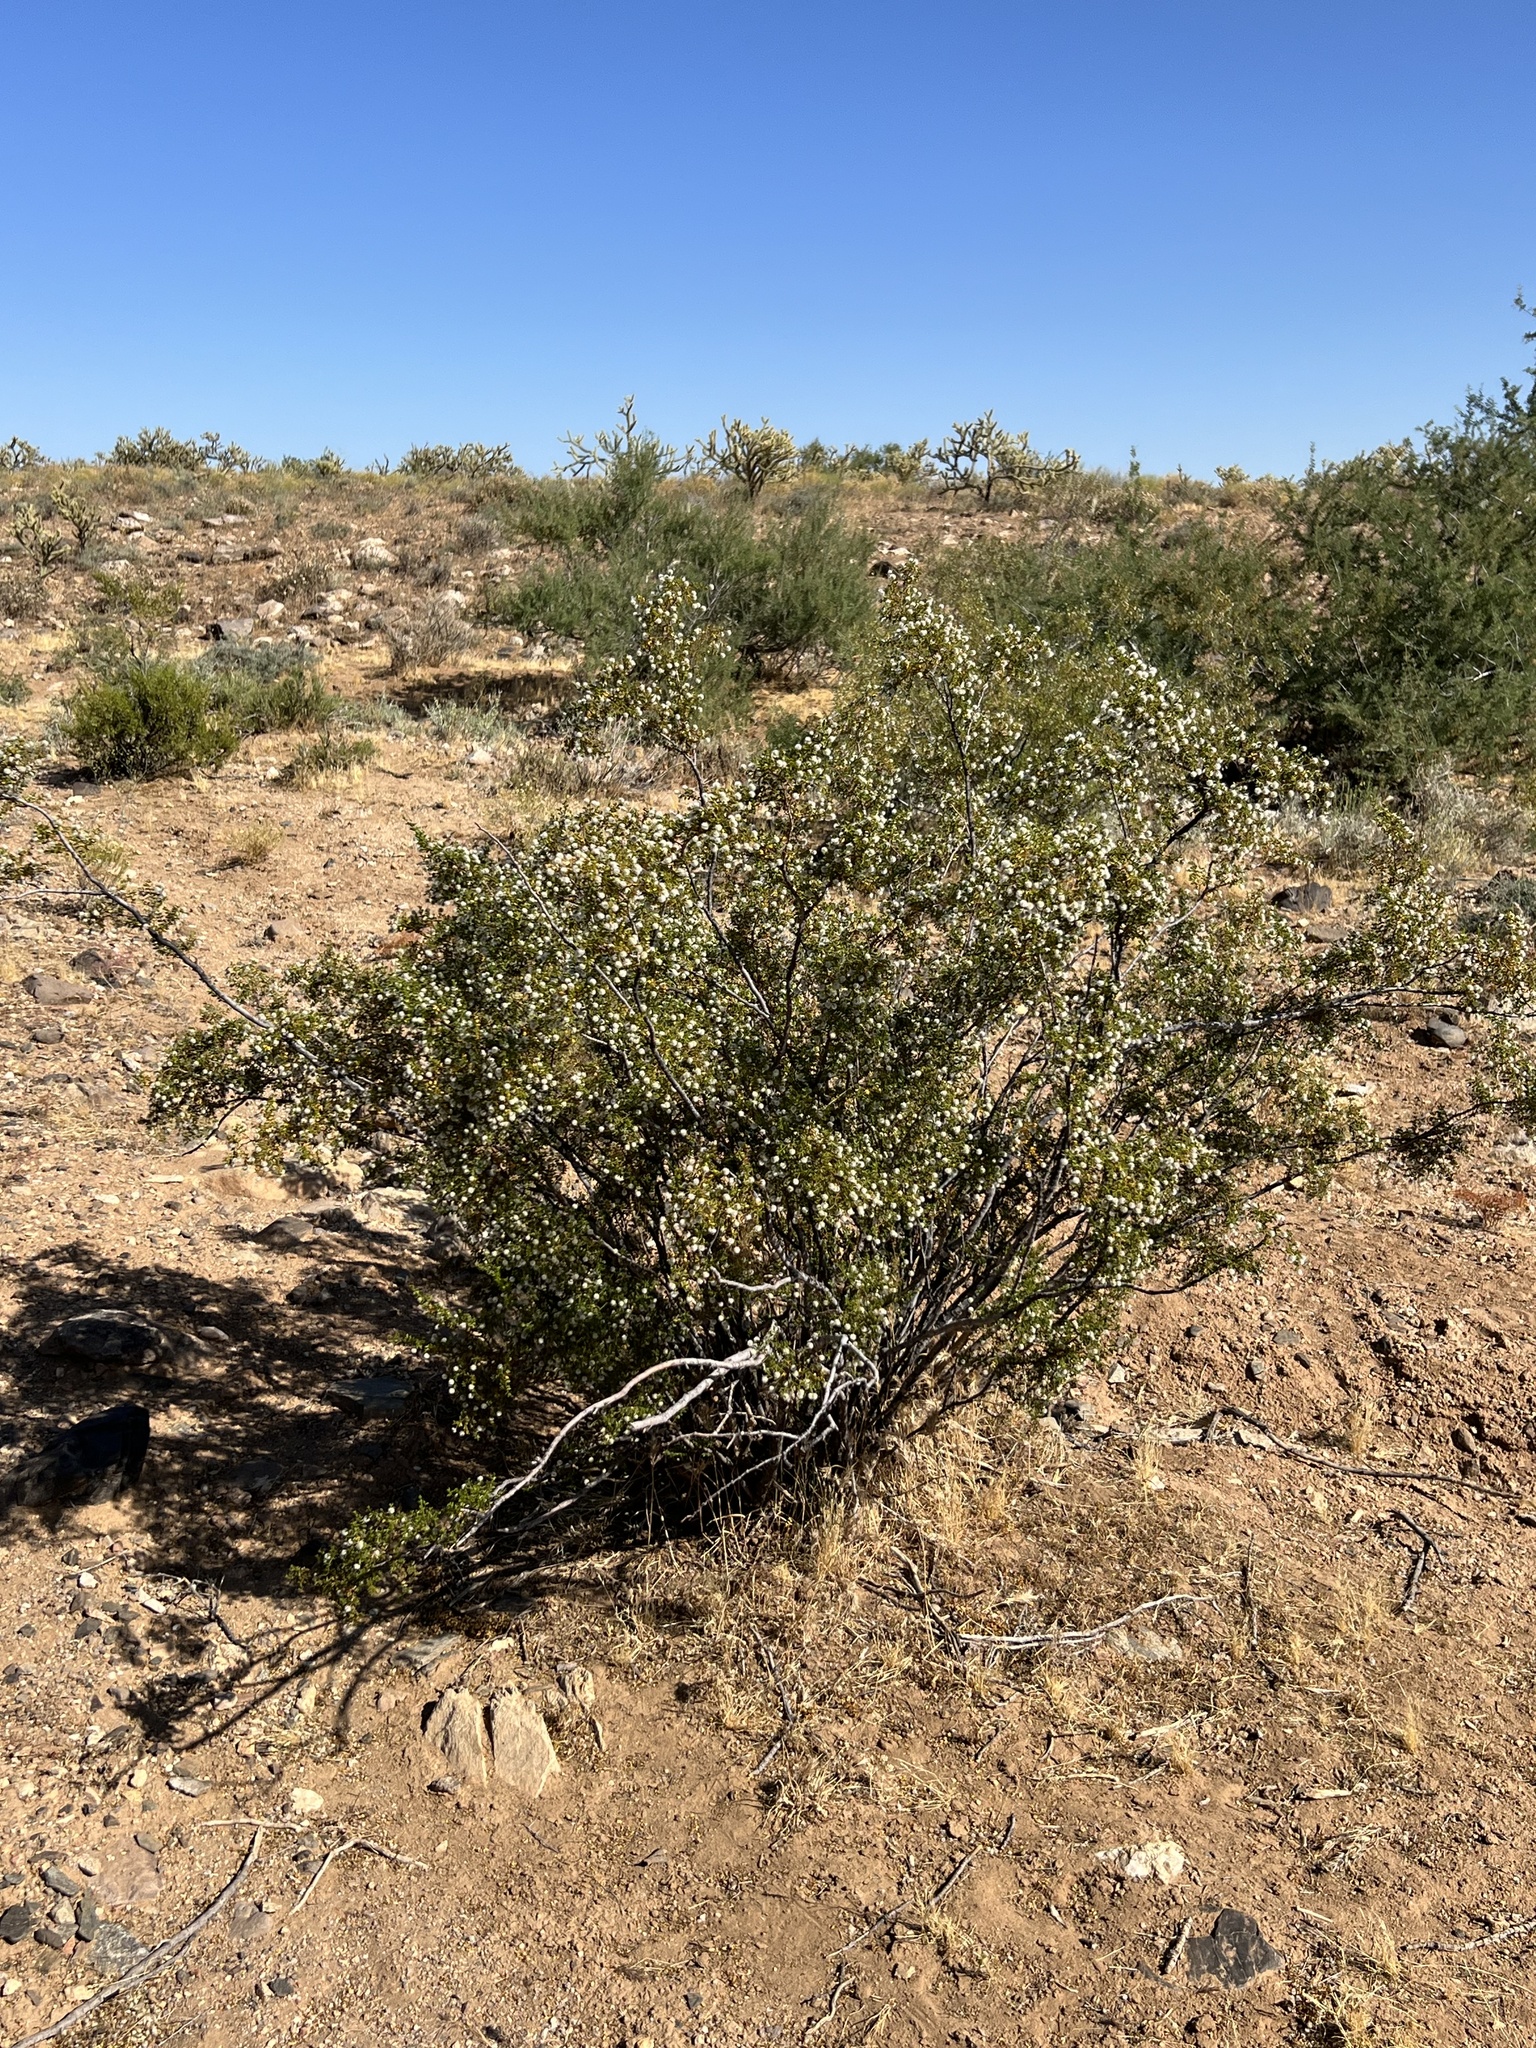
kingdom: Plantae
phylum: Tracheophyta
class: Magnoliopsida
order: Zygophyllales
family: Zygophyllaceae
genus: Larrea
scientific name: Larrea tridentata
